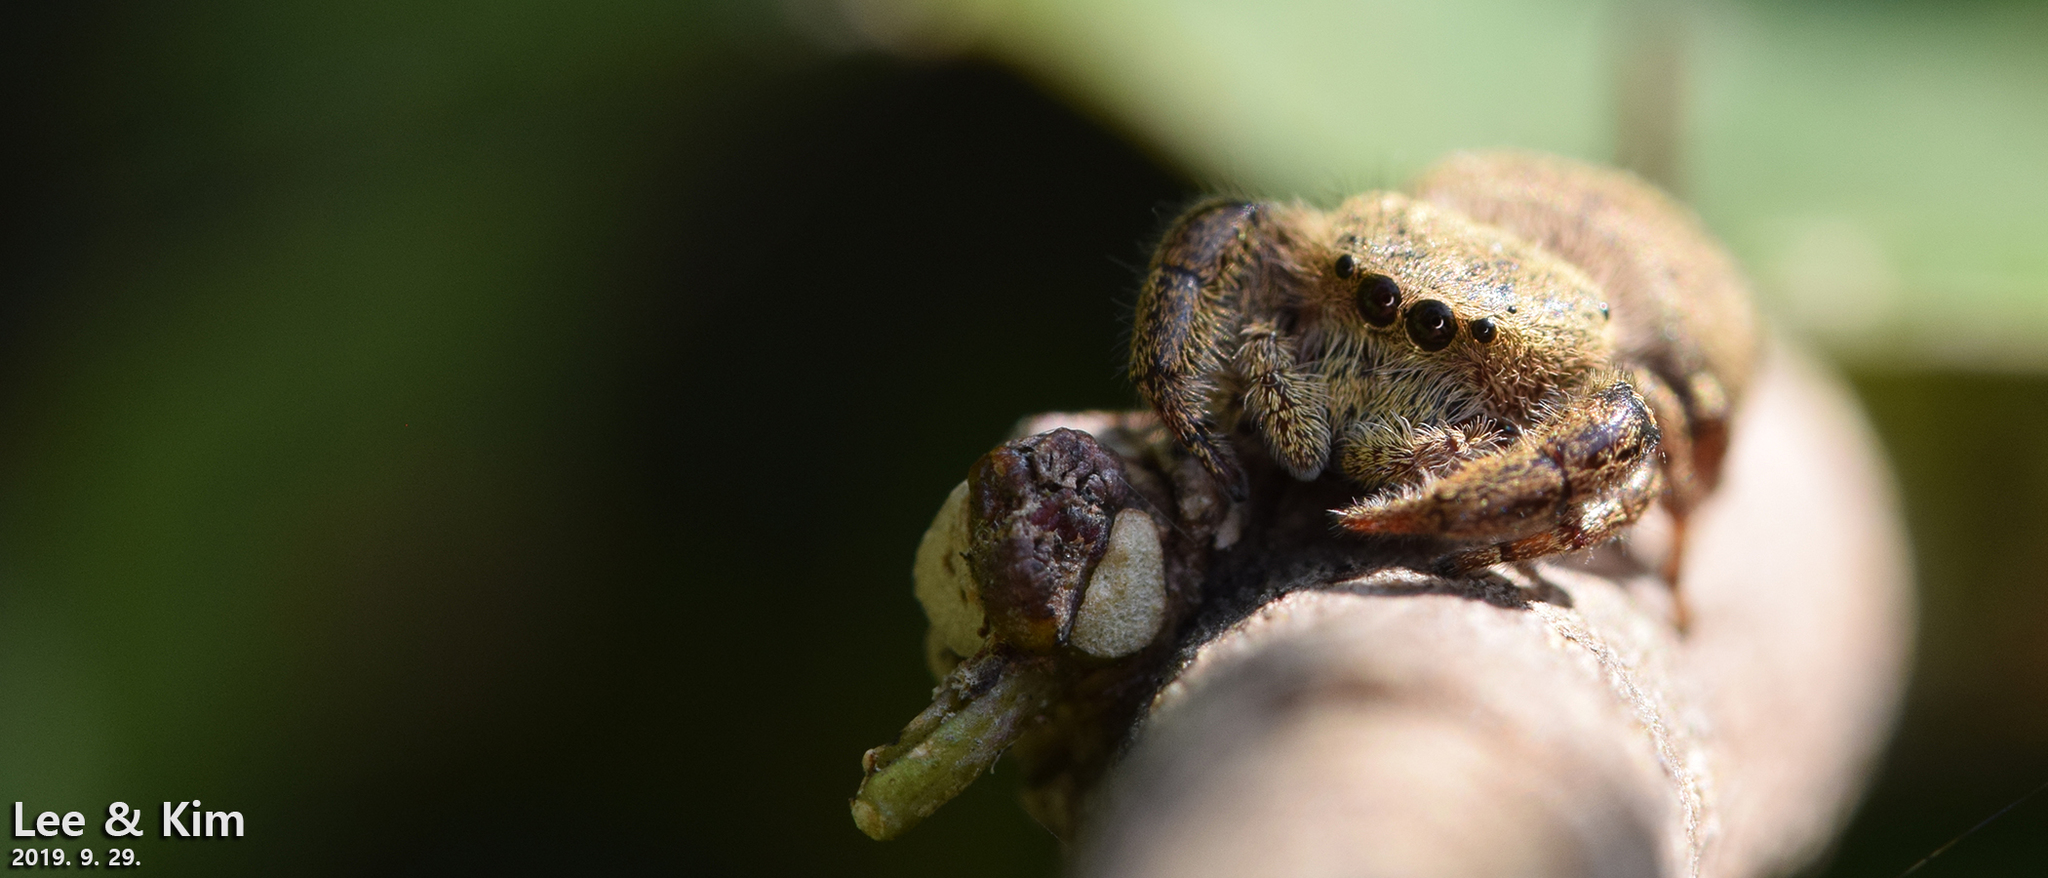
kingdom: Animalia
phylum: Arthropoda
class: Arachnida
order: Araneae
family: Salticidae
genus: Rhene
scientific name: Rhene atrata
